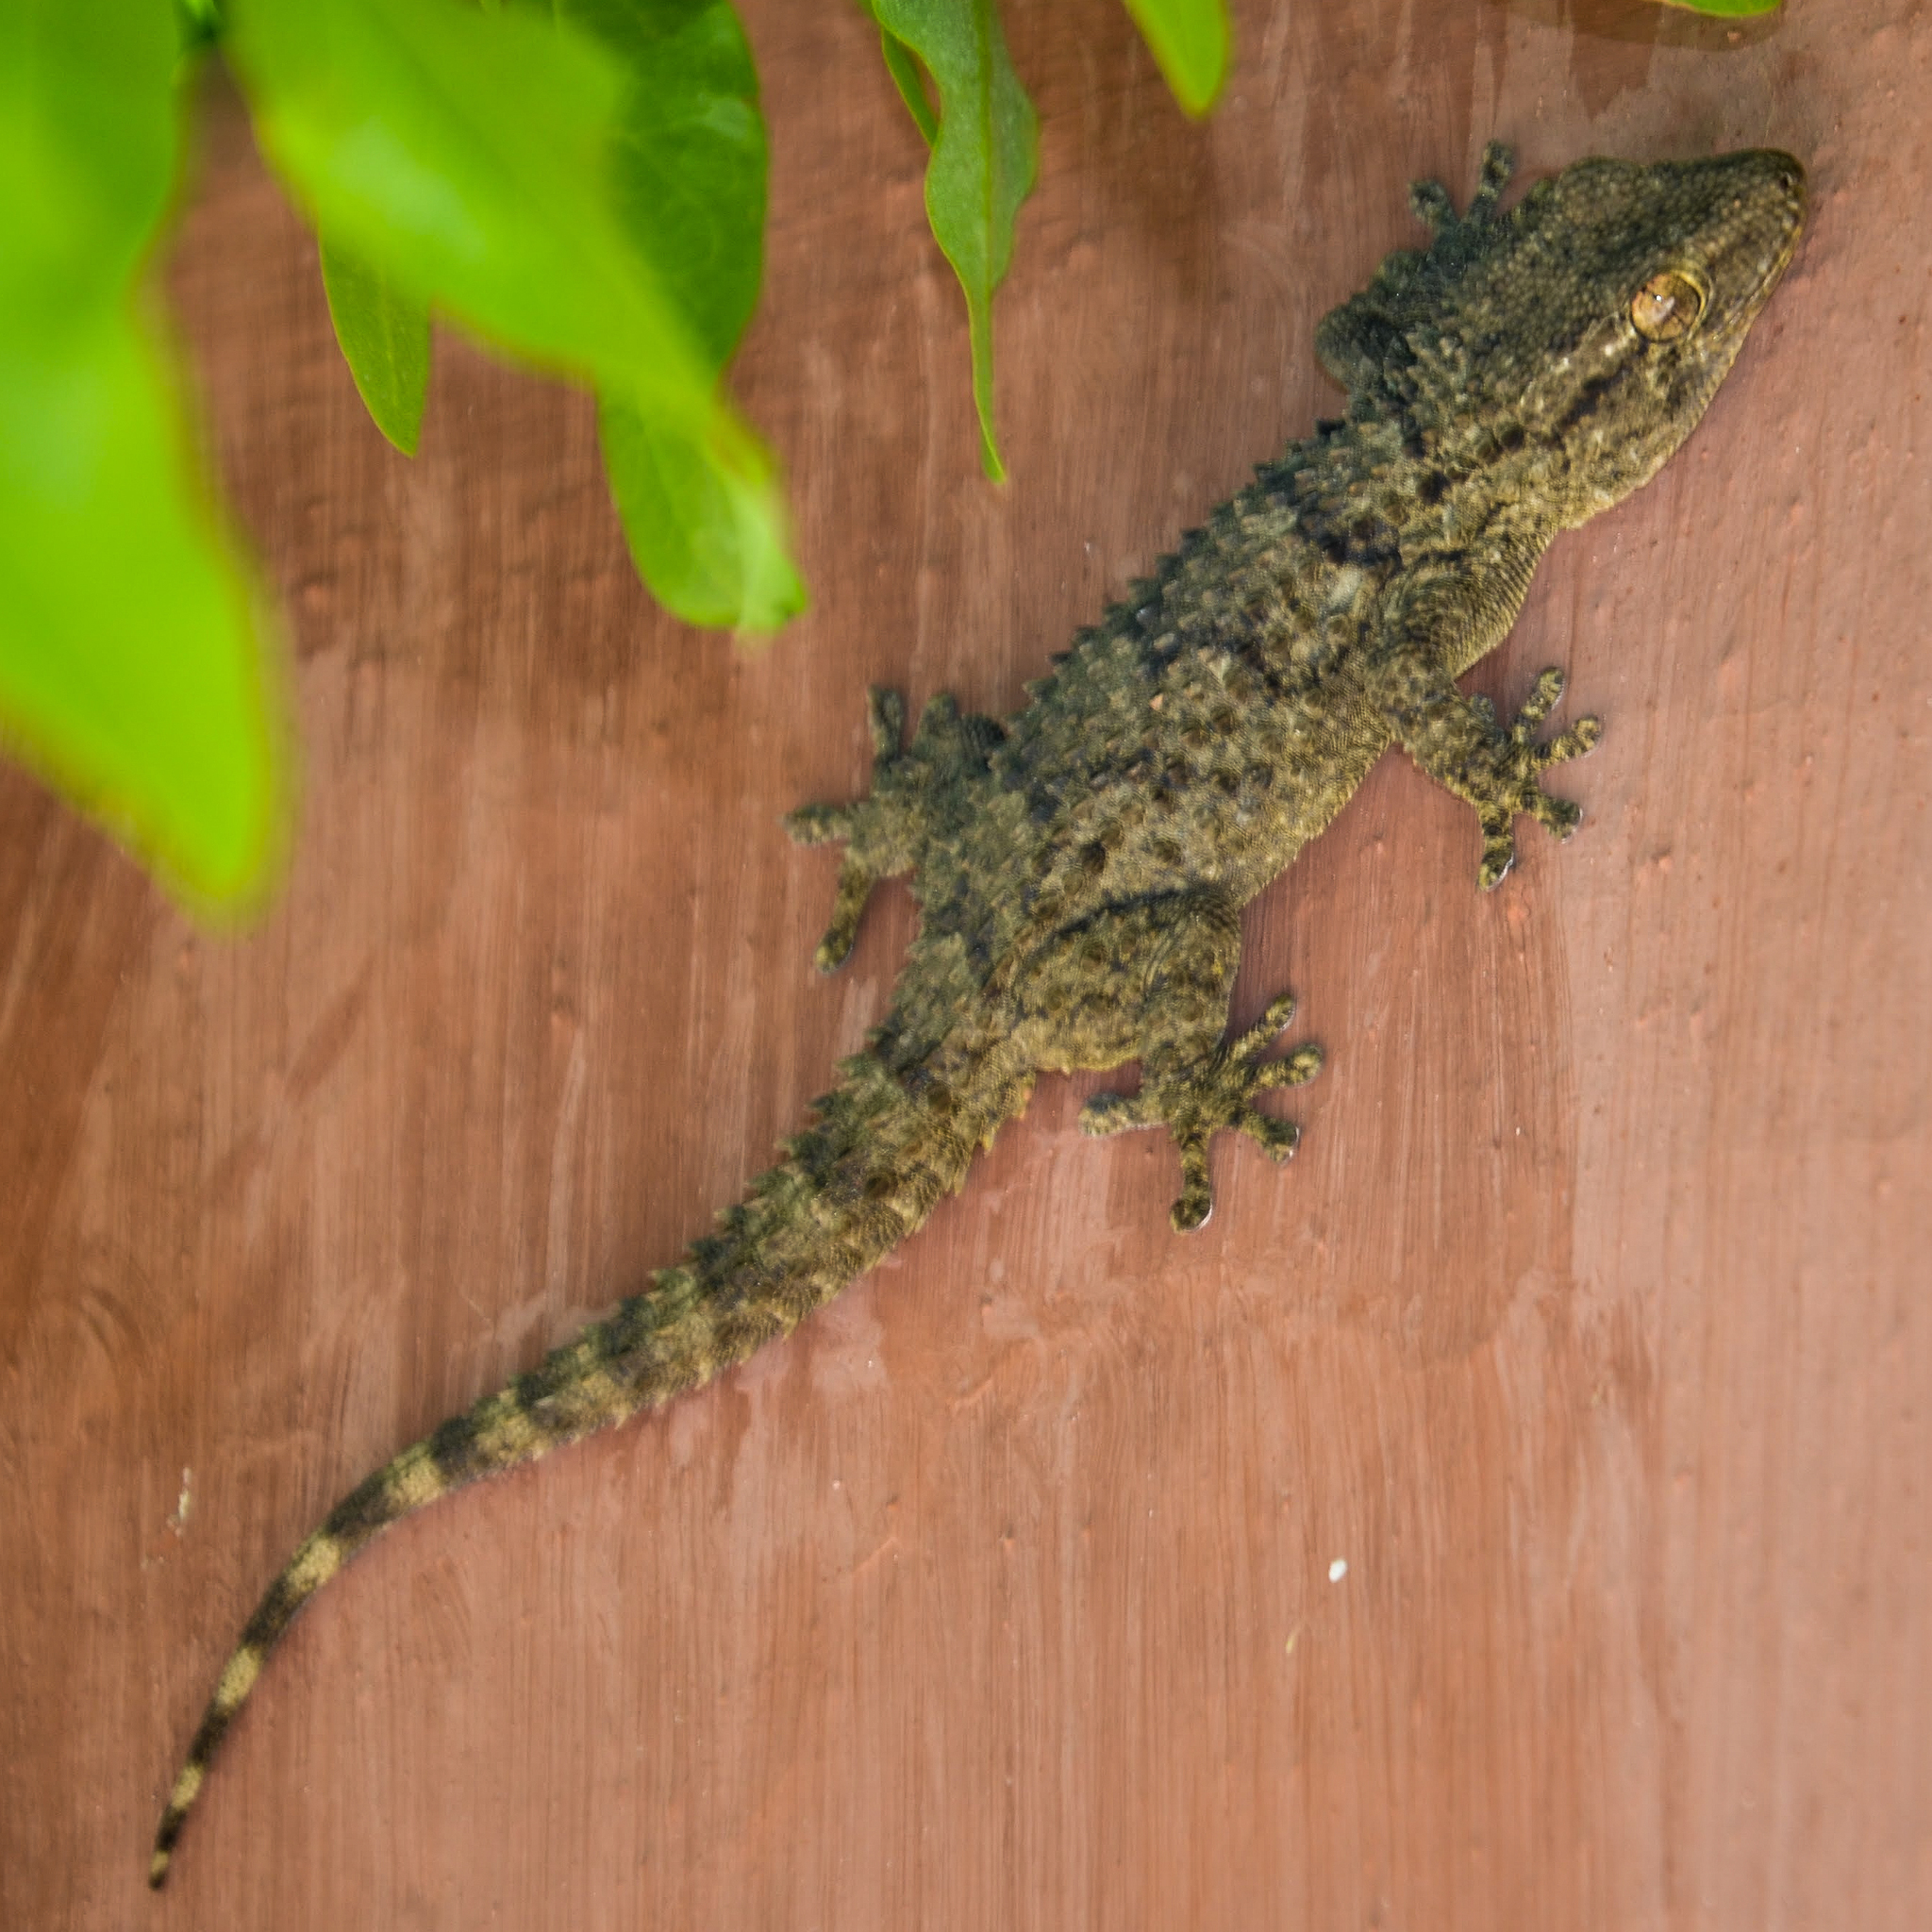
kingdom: Animalia
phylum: Chordata
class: Squamata
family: Phyllodactylidae
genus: Tarentola
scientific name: Tarentola mauritanica
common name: Moorish gecko
